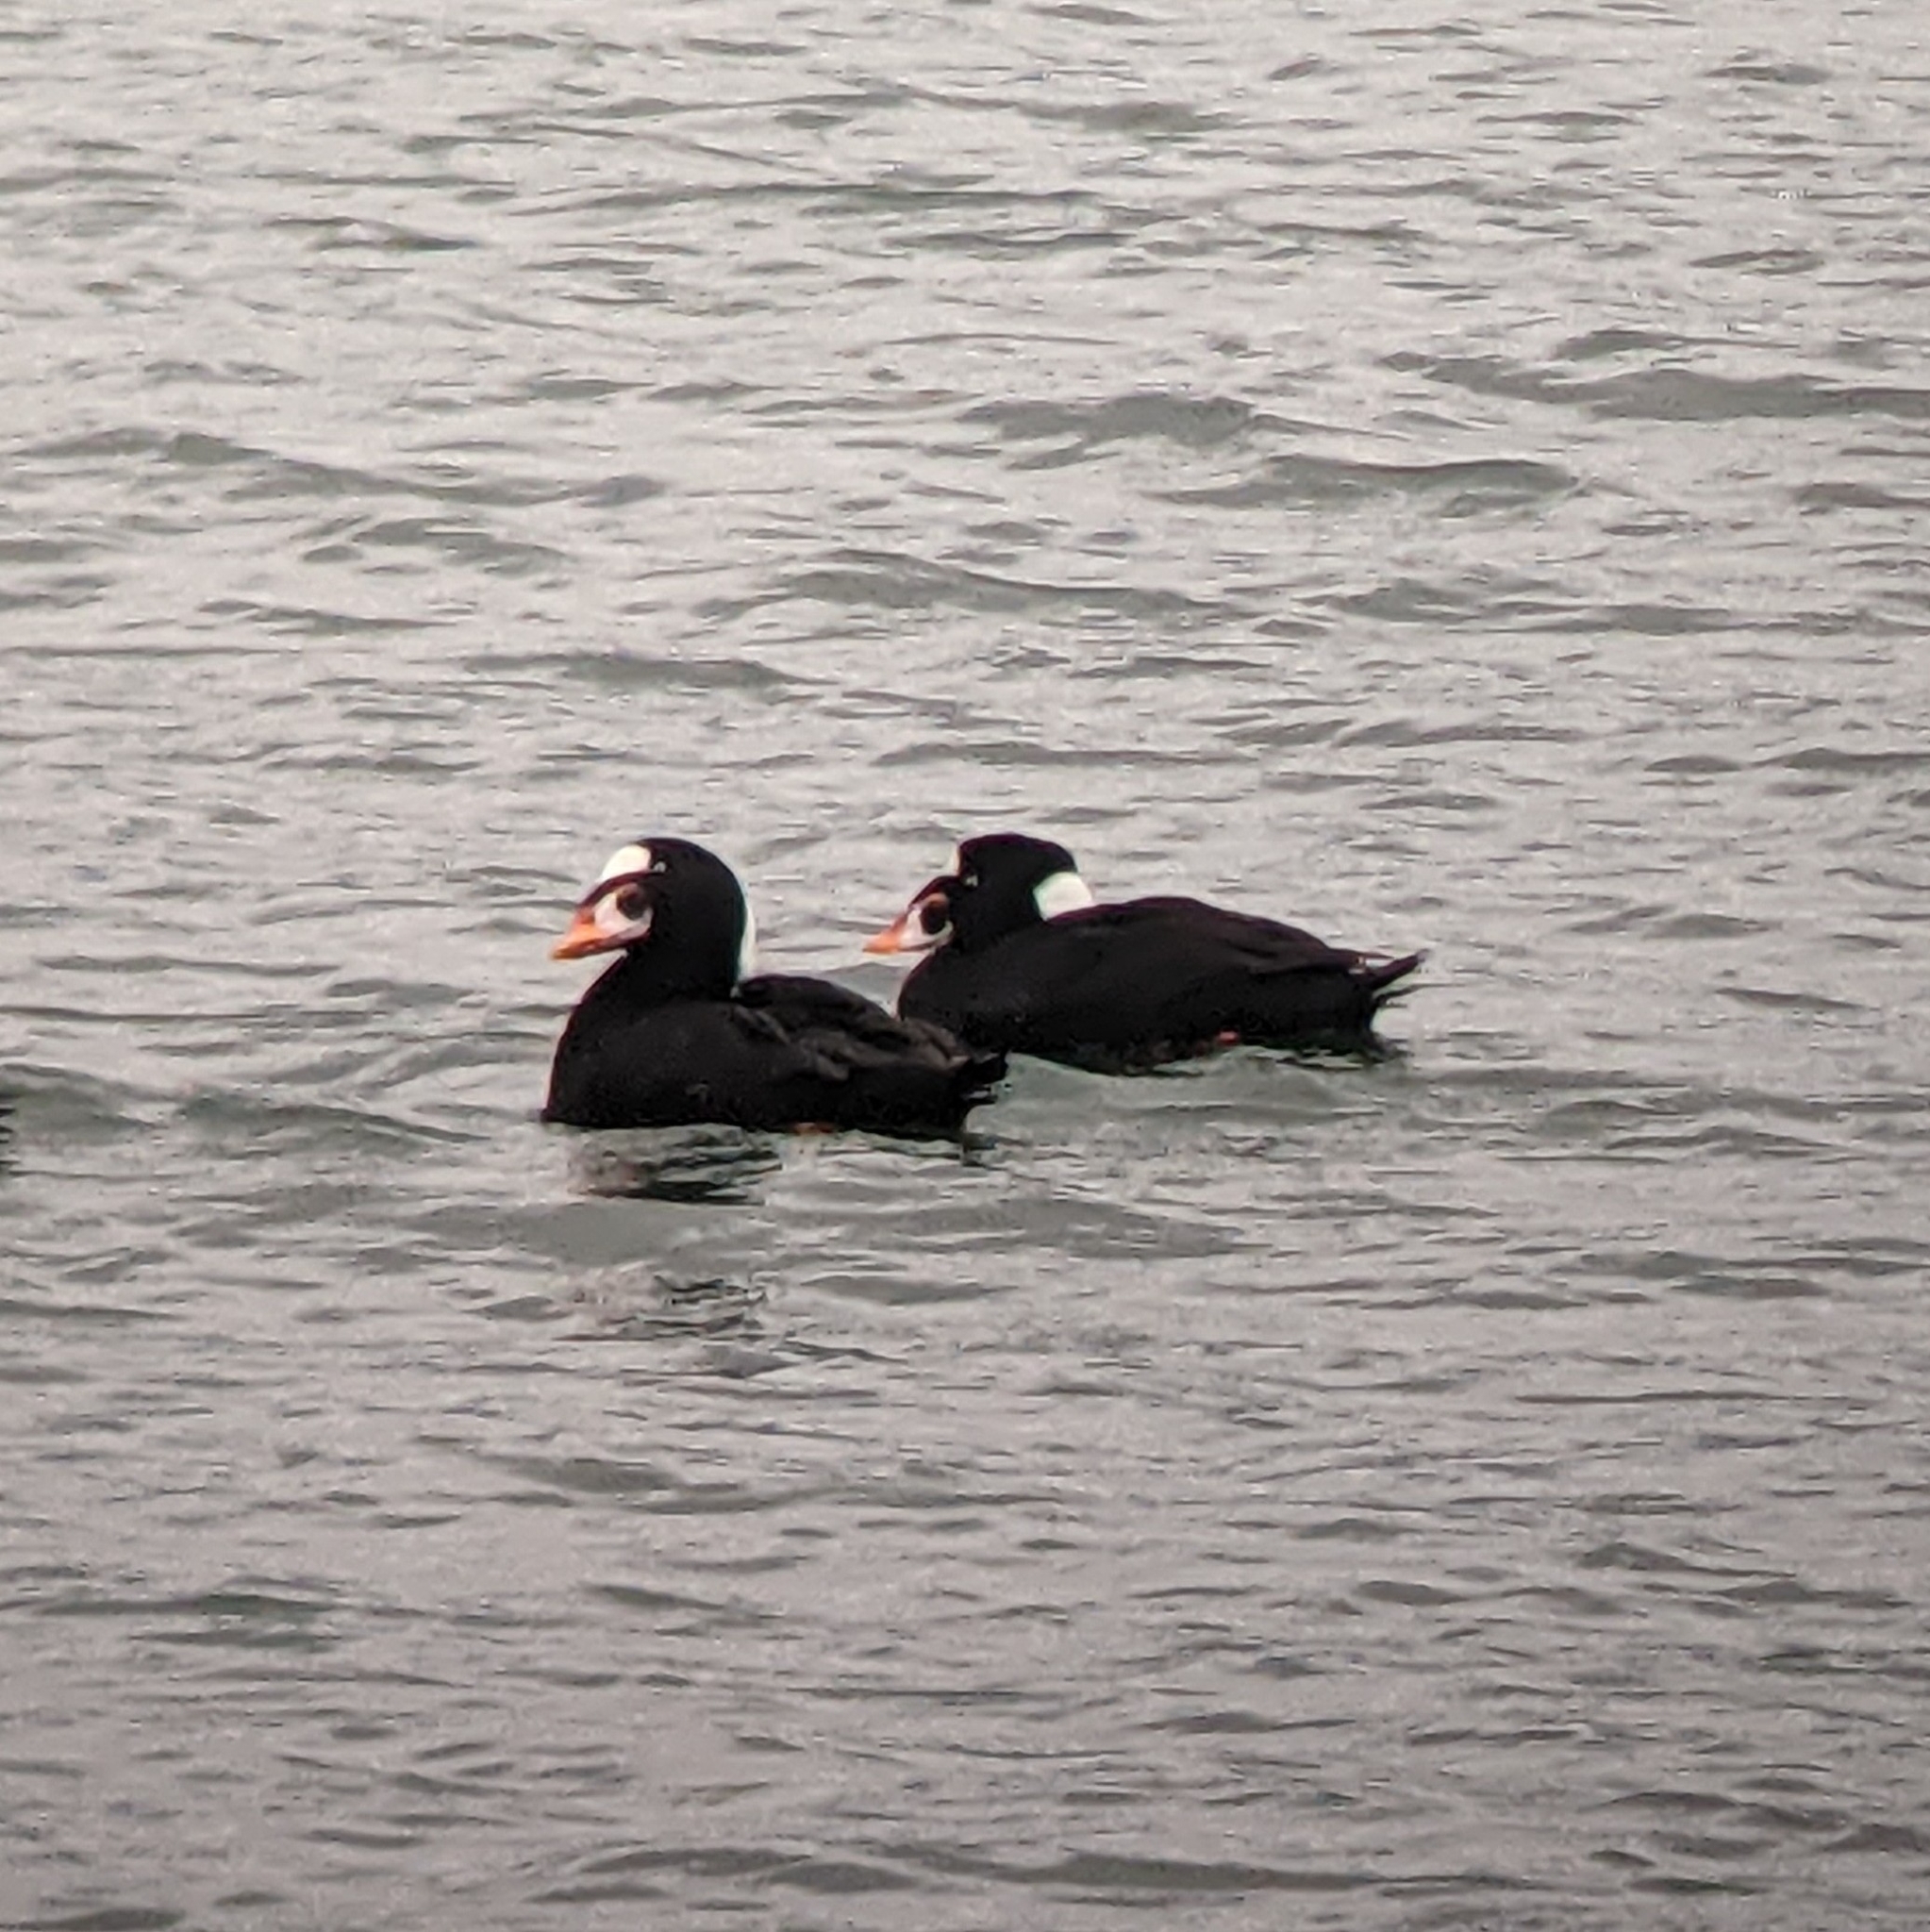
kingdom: Animalia
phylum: Chordata
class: Aves
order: Anseriformes
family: Anatidae
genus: Melanitta
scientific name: Melanitta perspicillata
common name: Surf scoter
